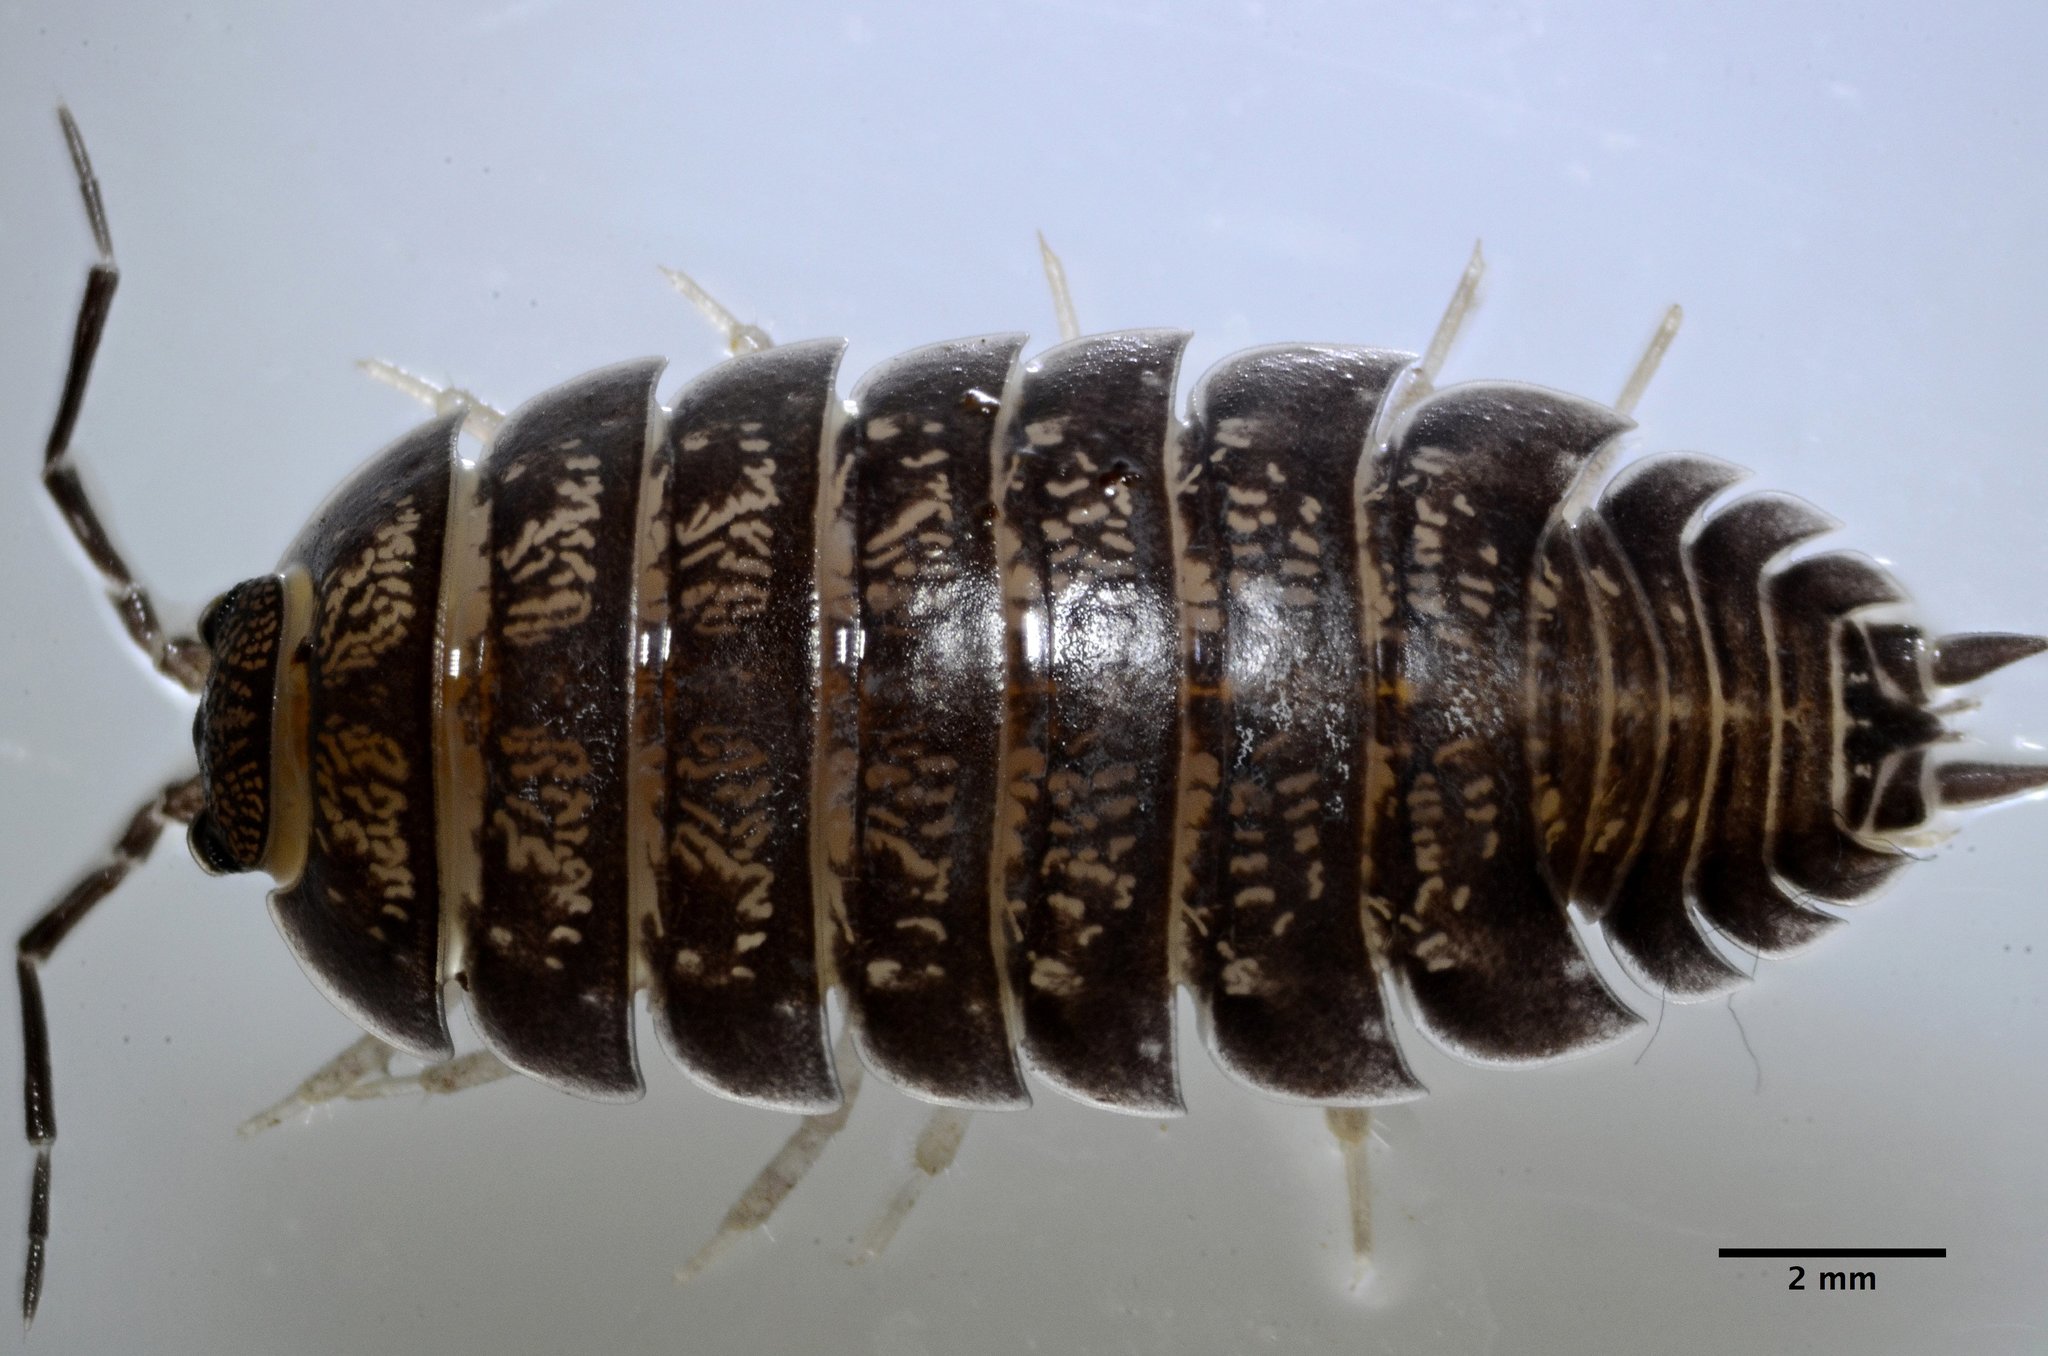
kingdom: Animalia
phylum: Arthropoda
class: Malacostraca
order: Isopoda
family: Porcellionidae
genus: Porcellio
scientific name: Porcellio laevis
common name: Swift woodlouse
